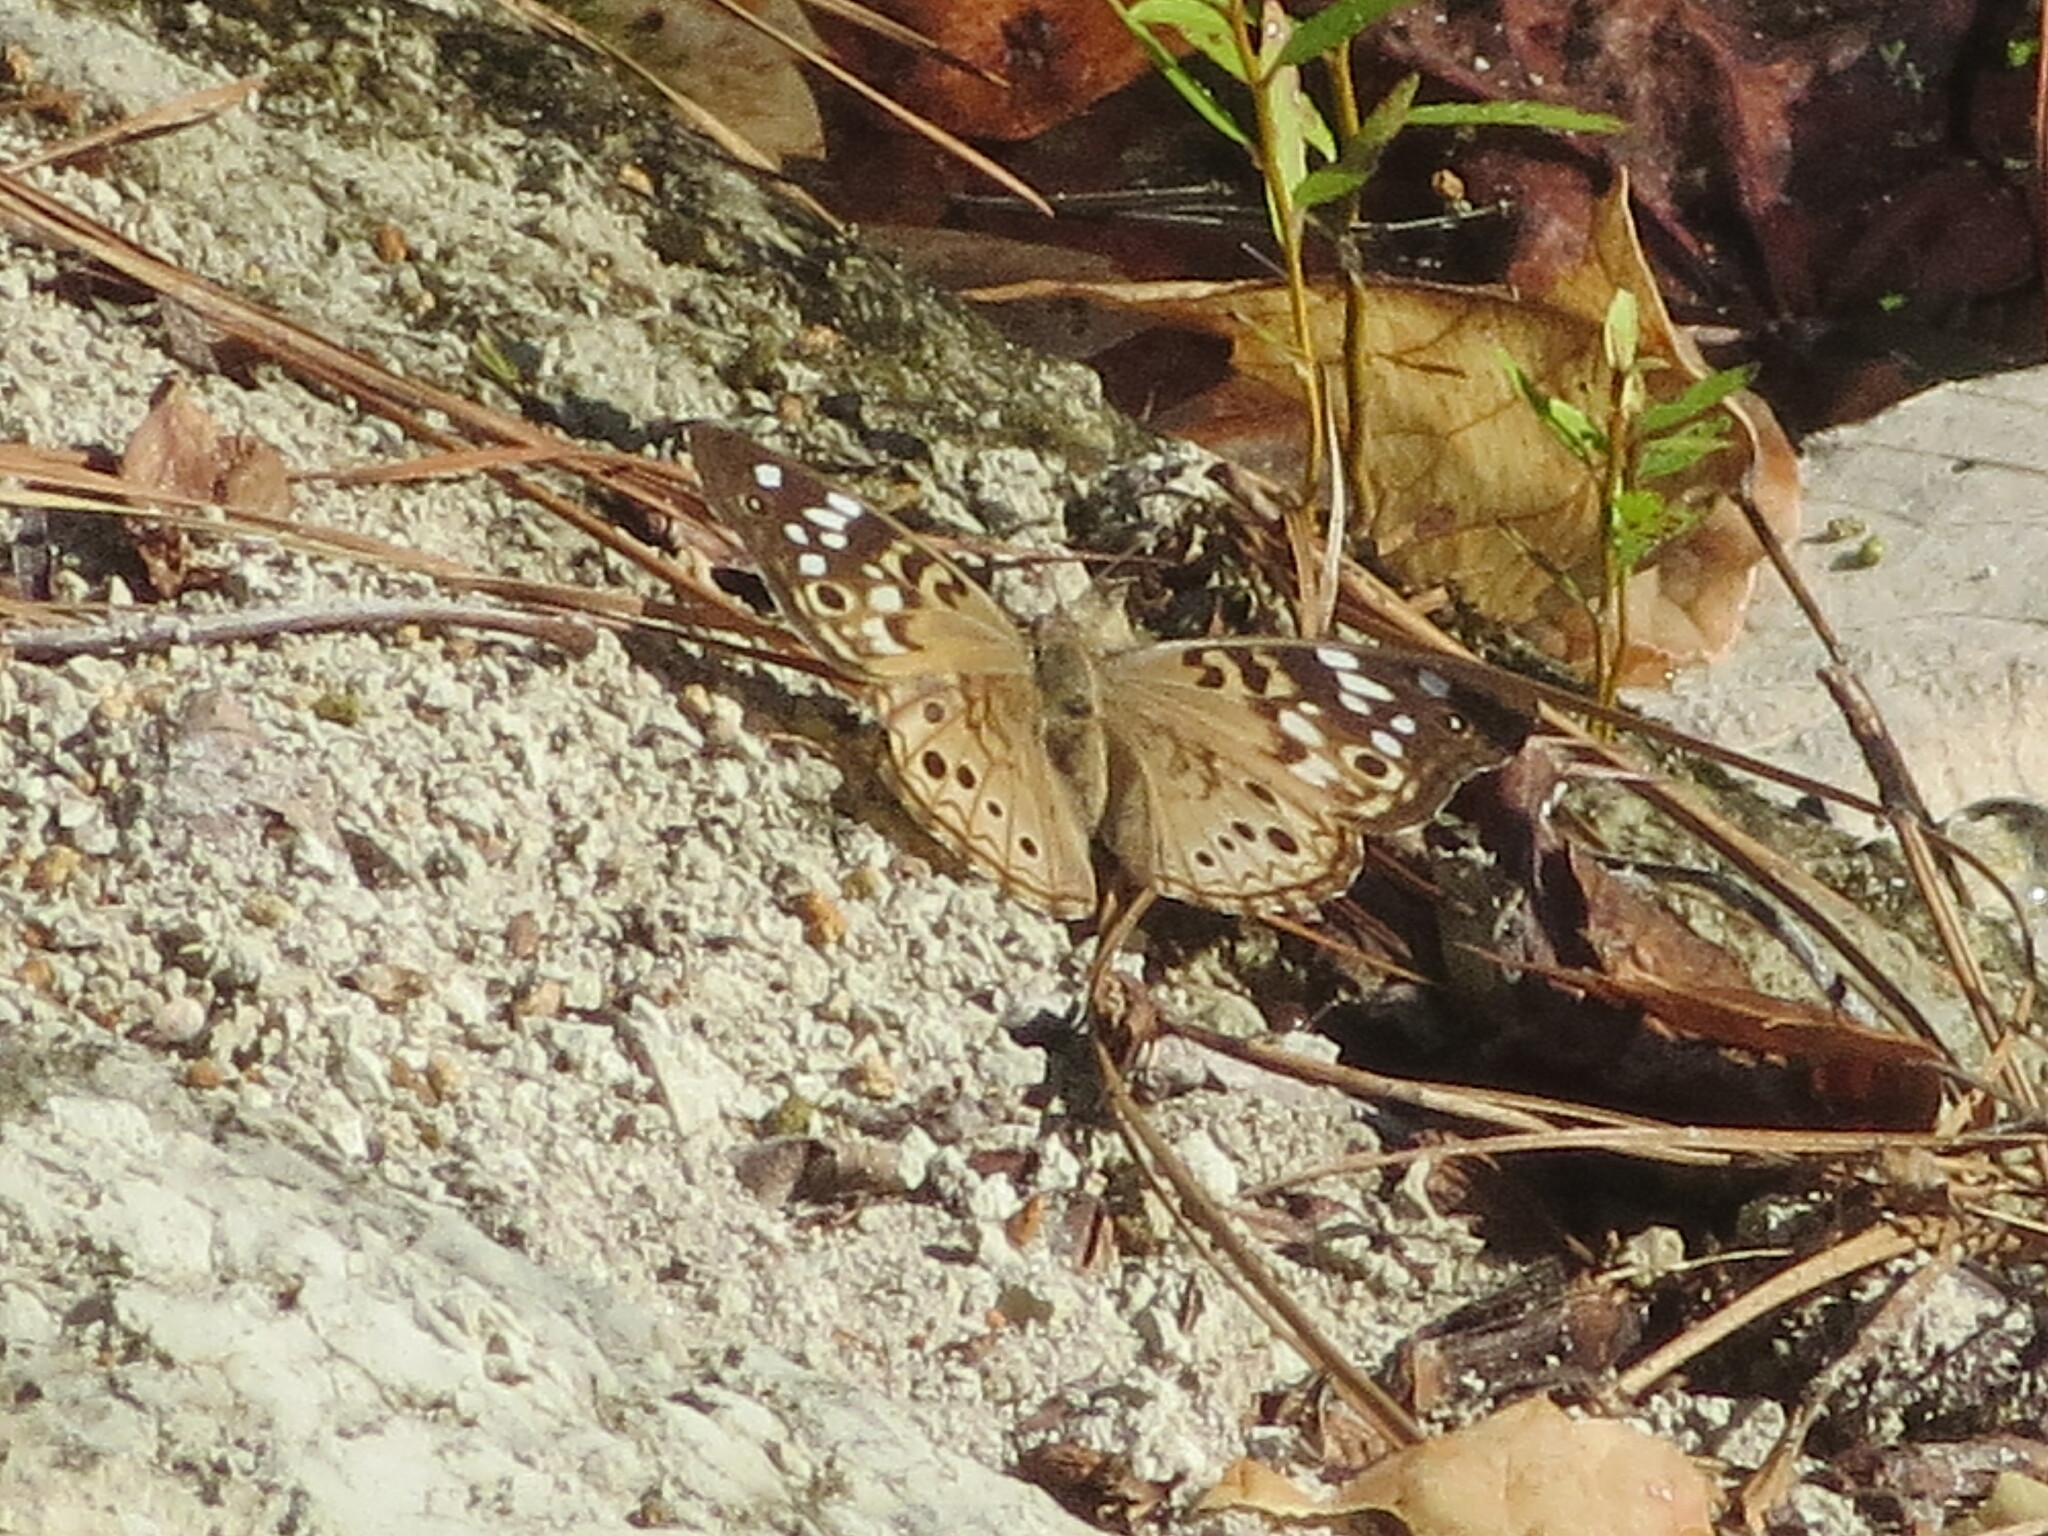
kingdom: Animalia
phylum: Arthropoda
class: Insecta
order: Lepidoptera
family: Nymphalidae
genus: Asterocampa
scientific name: Asterocampa celtis
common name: Hackberry emperor
